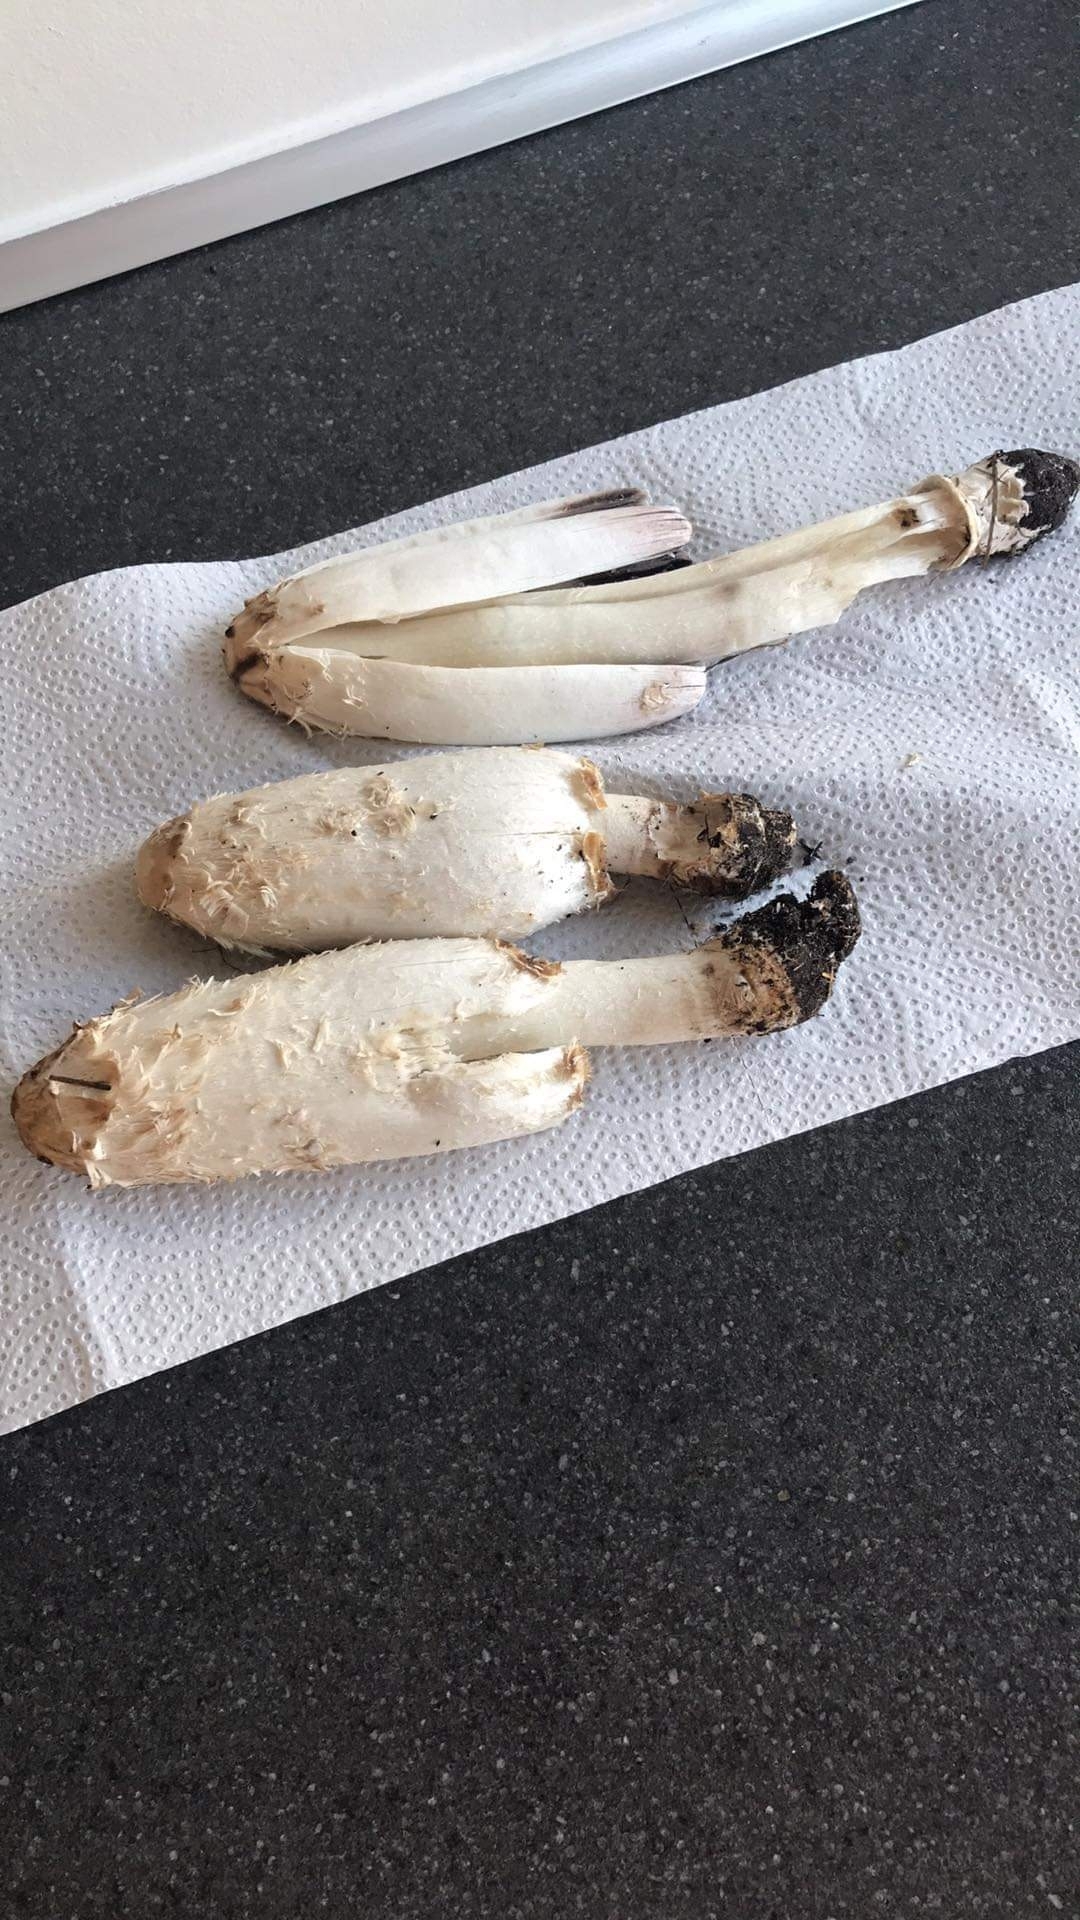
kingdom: Fungi
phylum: Basidiomycota
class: Agaricomycetes
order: Agaricales
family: Agaricaceae
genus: Coprinus
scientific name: Coprinus comatus
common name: Lawyer's wig
